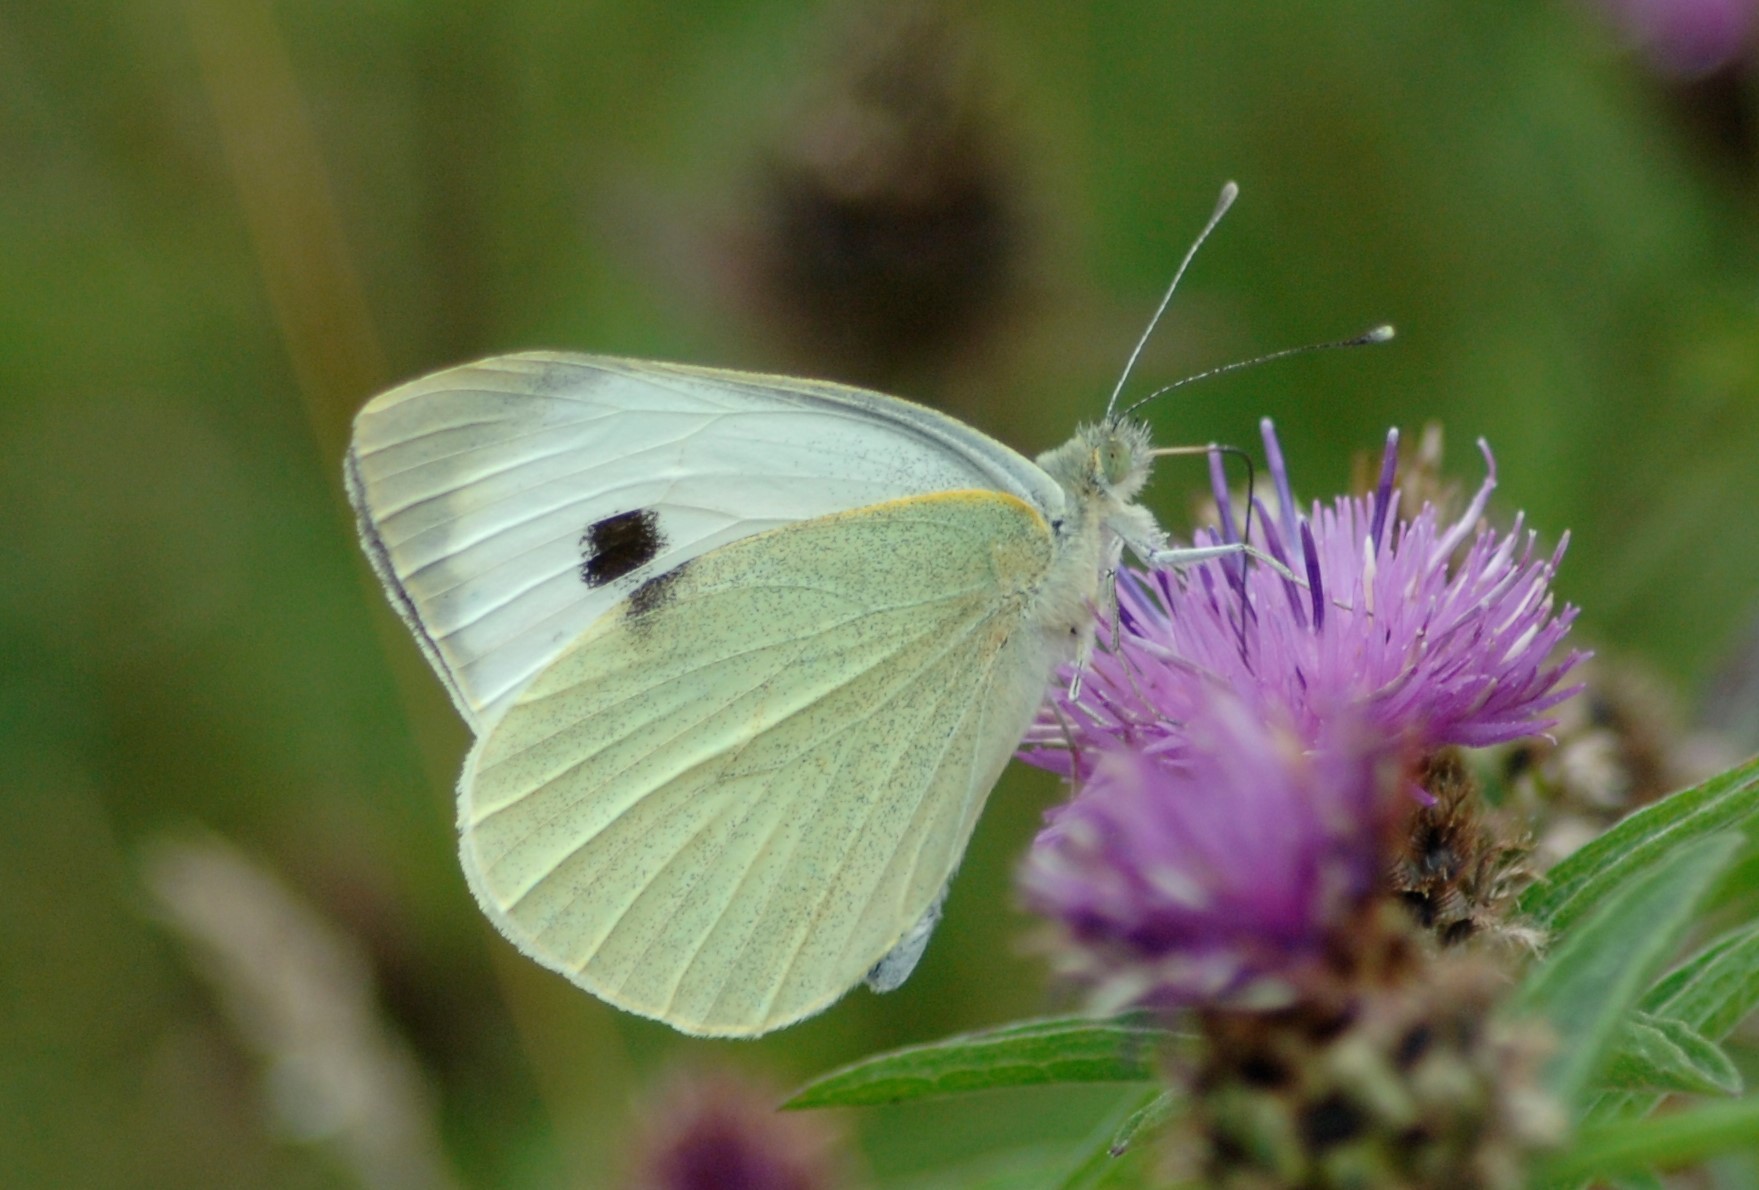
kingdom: Animalia
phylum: Arthropoda
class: Insecta
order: Lepidoptera
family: Pieridae
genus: Pieris
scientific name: Pieris brassicae
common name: Large white
